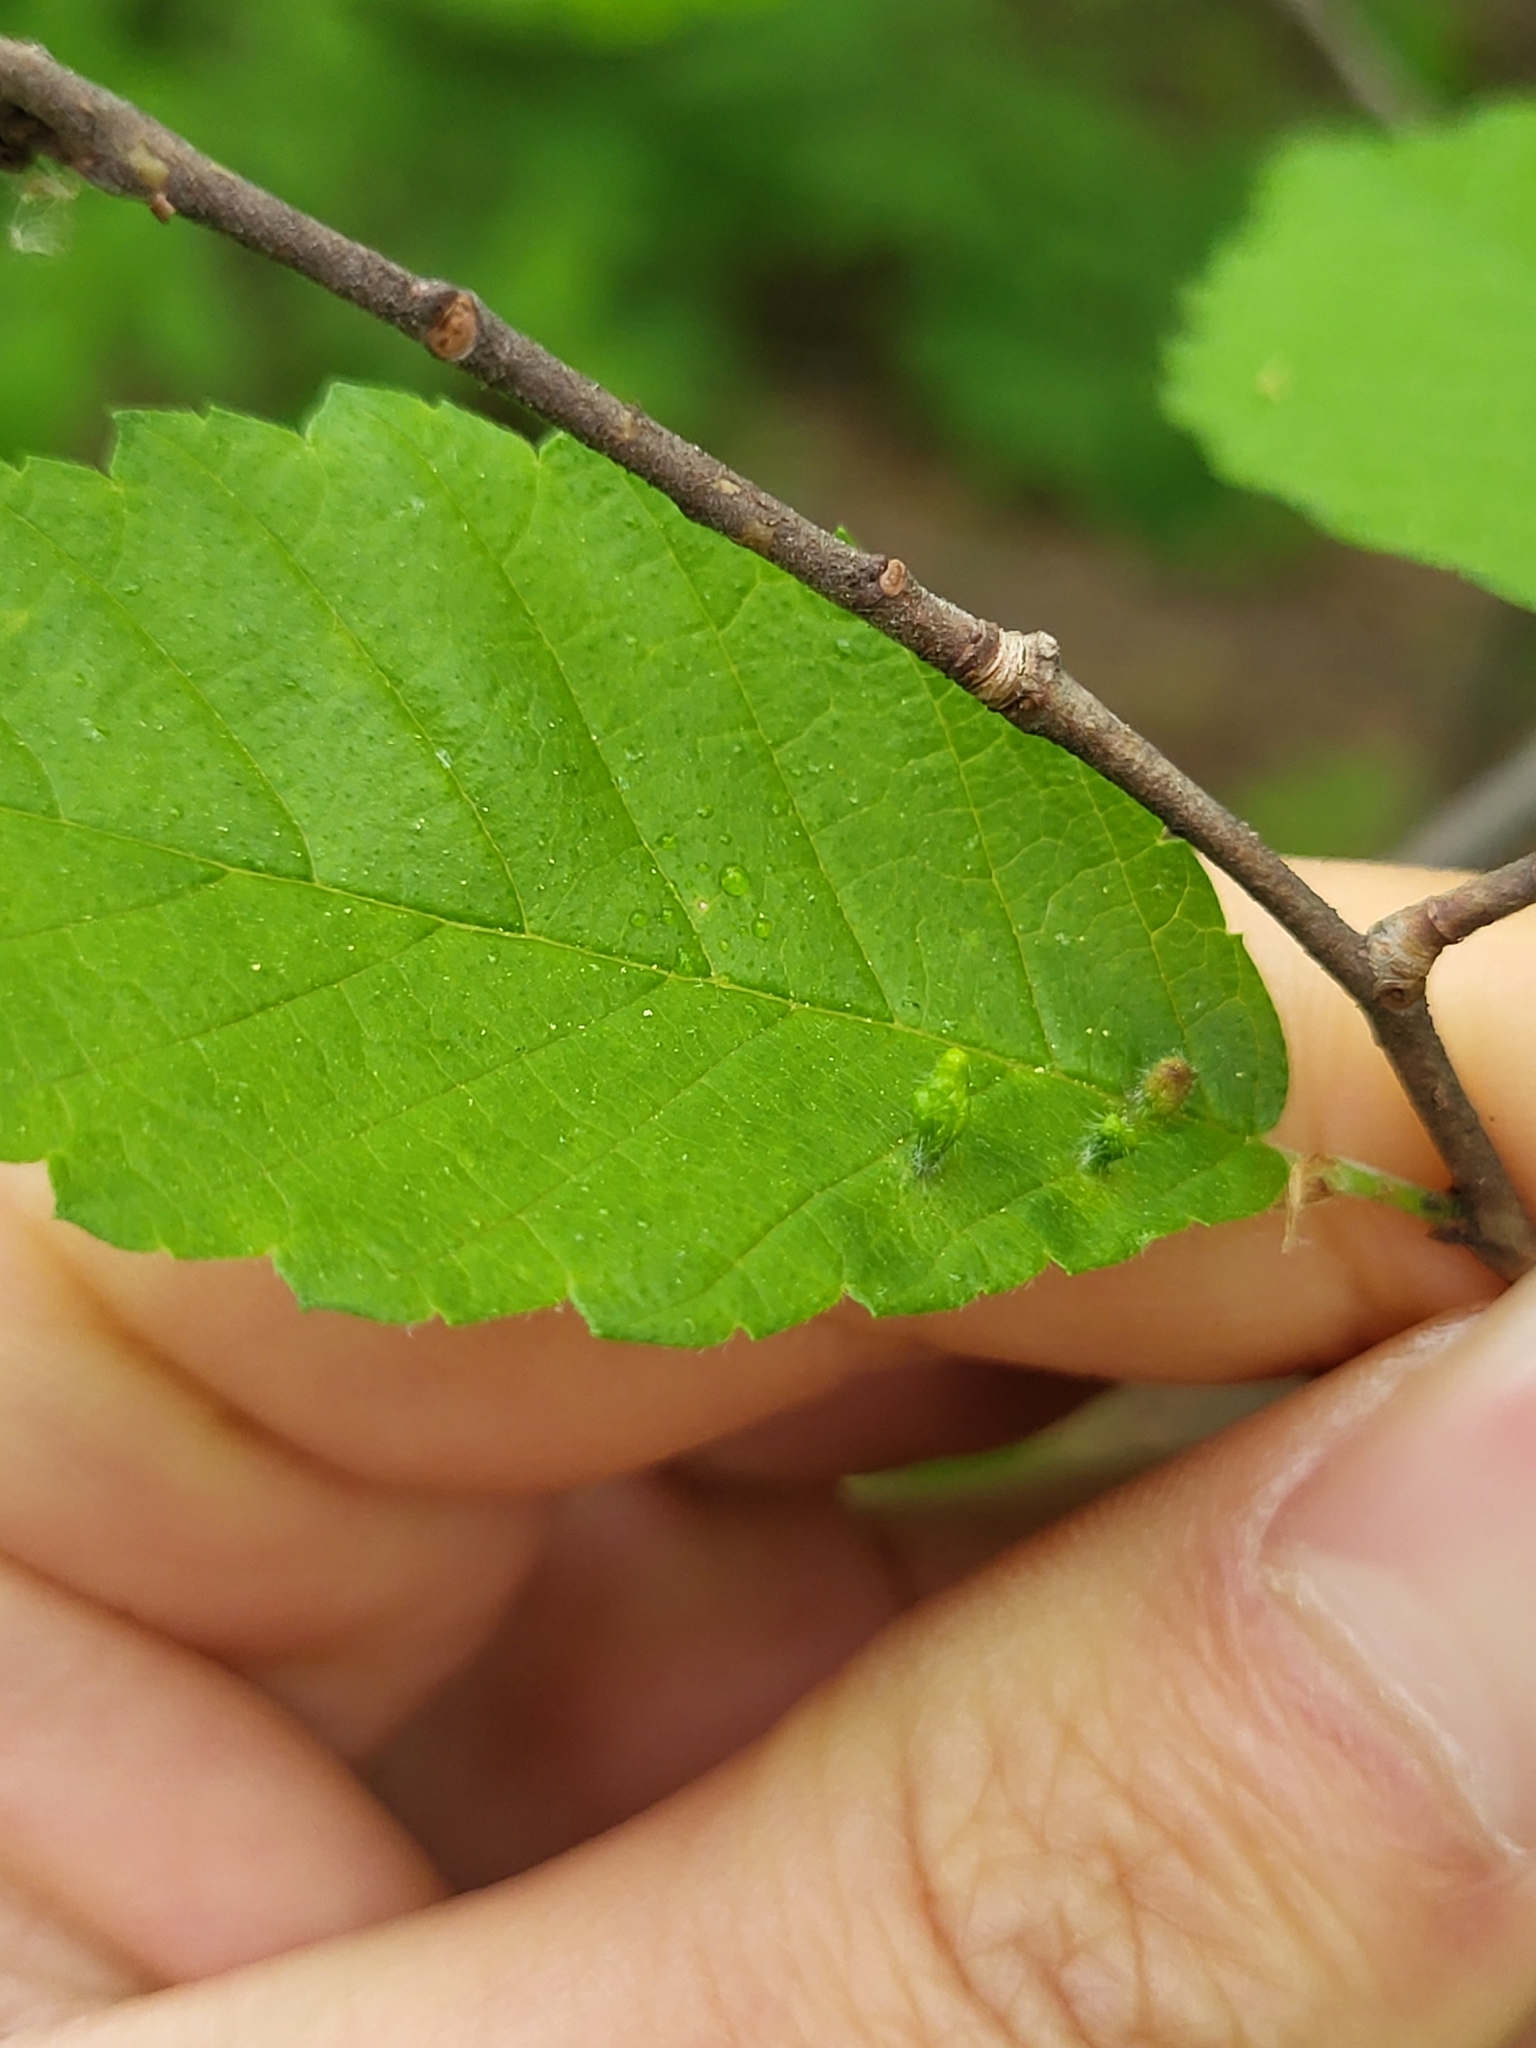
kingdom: Animalia
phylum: Arthropoda
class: Arachnida
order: Trombidiformes
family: Eriophyidae
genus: Aceria
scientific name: Aceria
